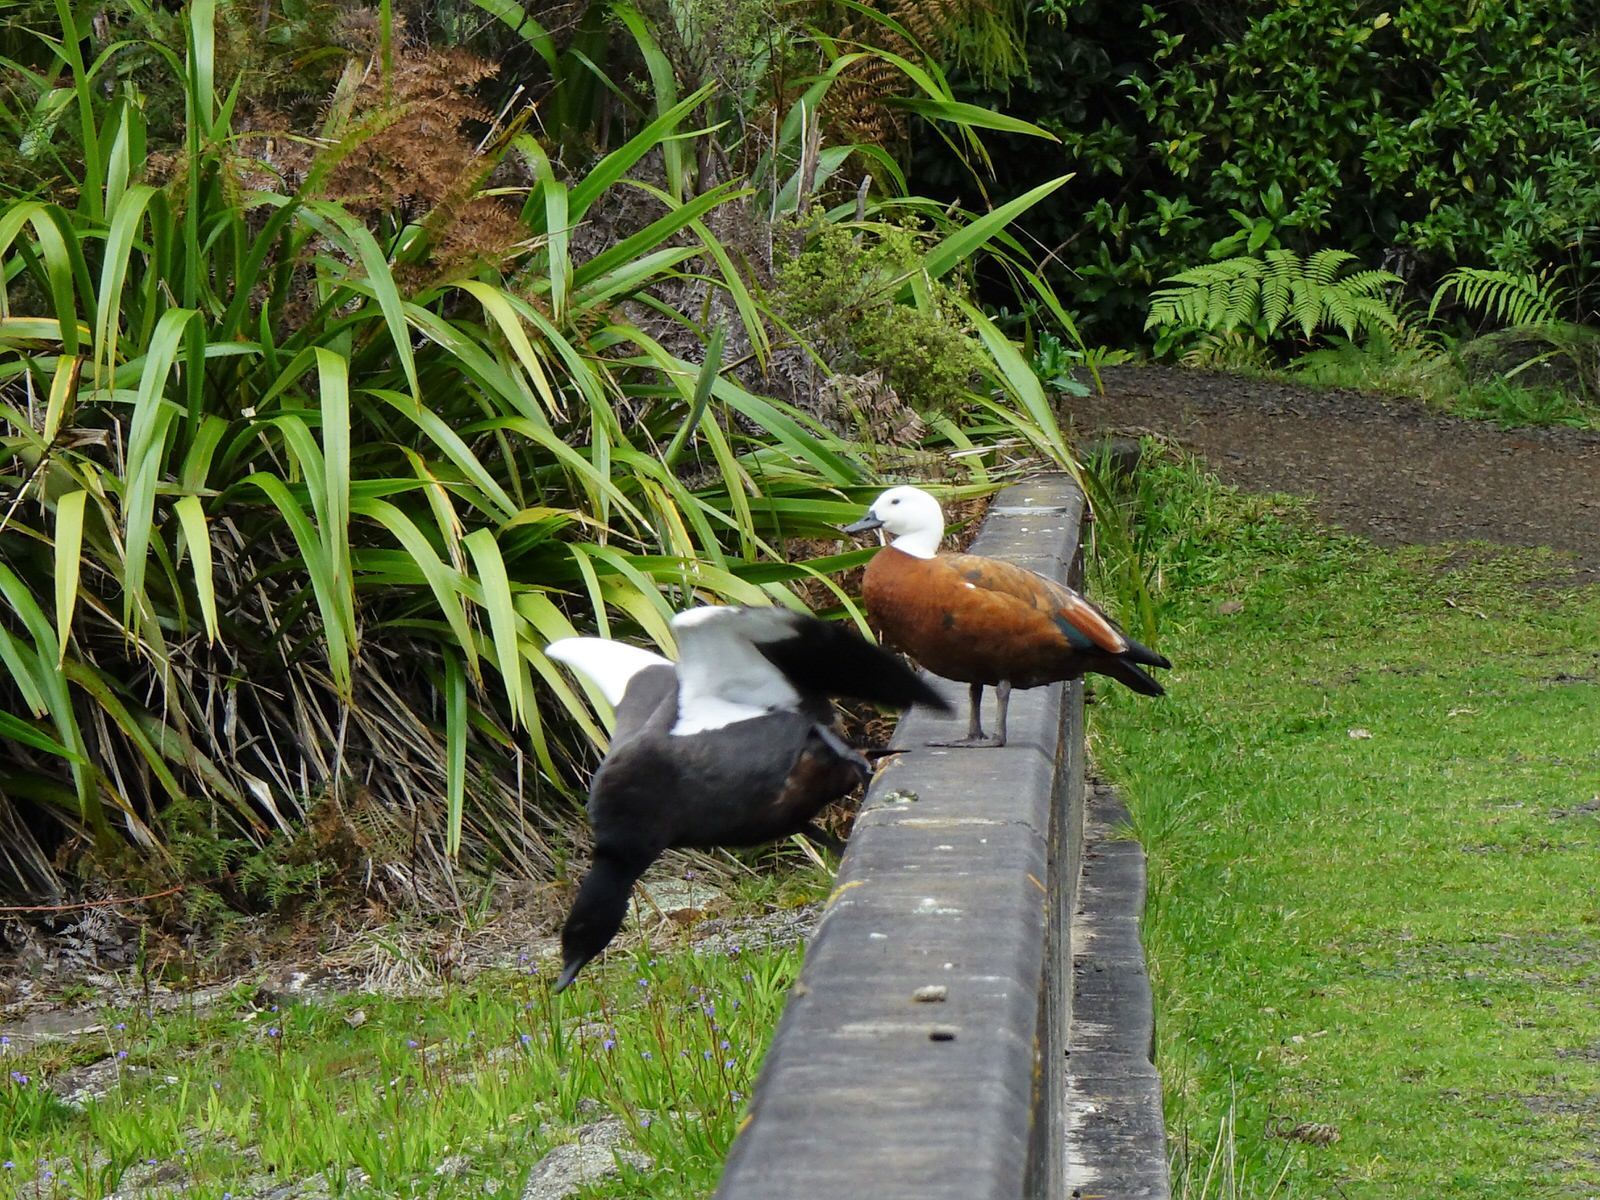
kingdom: Animalia
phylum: Chordata
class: Aves
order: Anseriformes
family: Anatidae
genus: Tadorna
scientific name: Tadorna variegata
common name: Paradise shelduck
